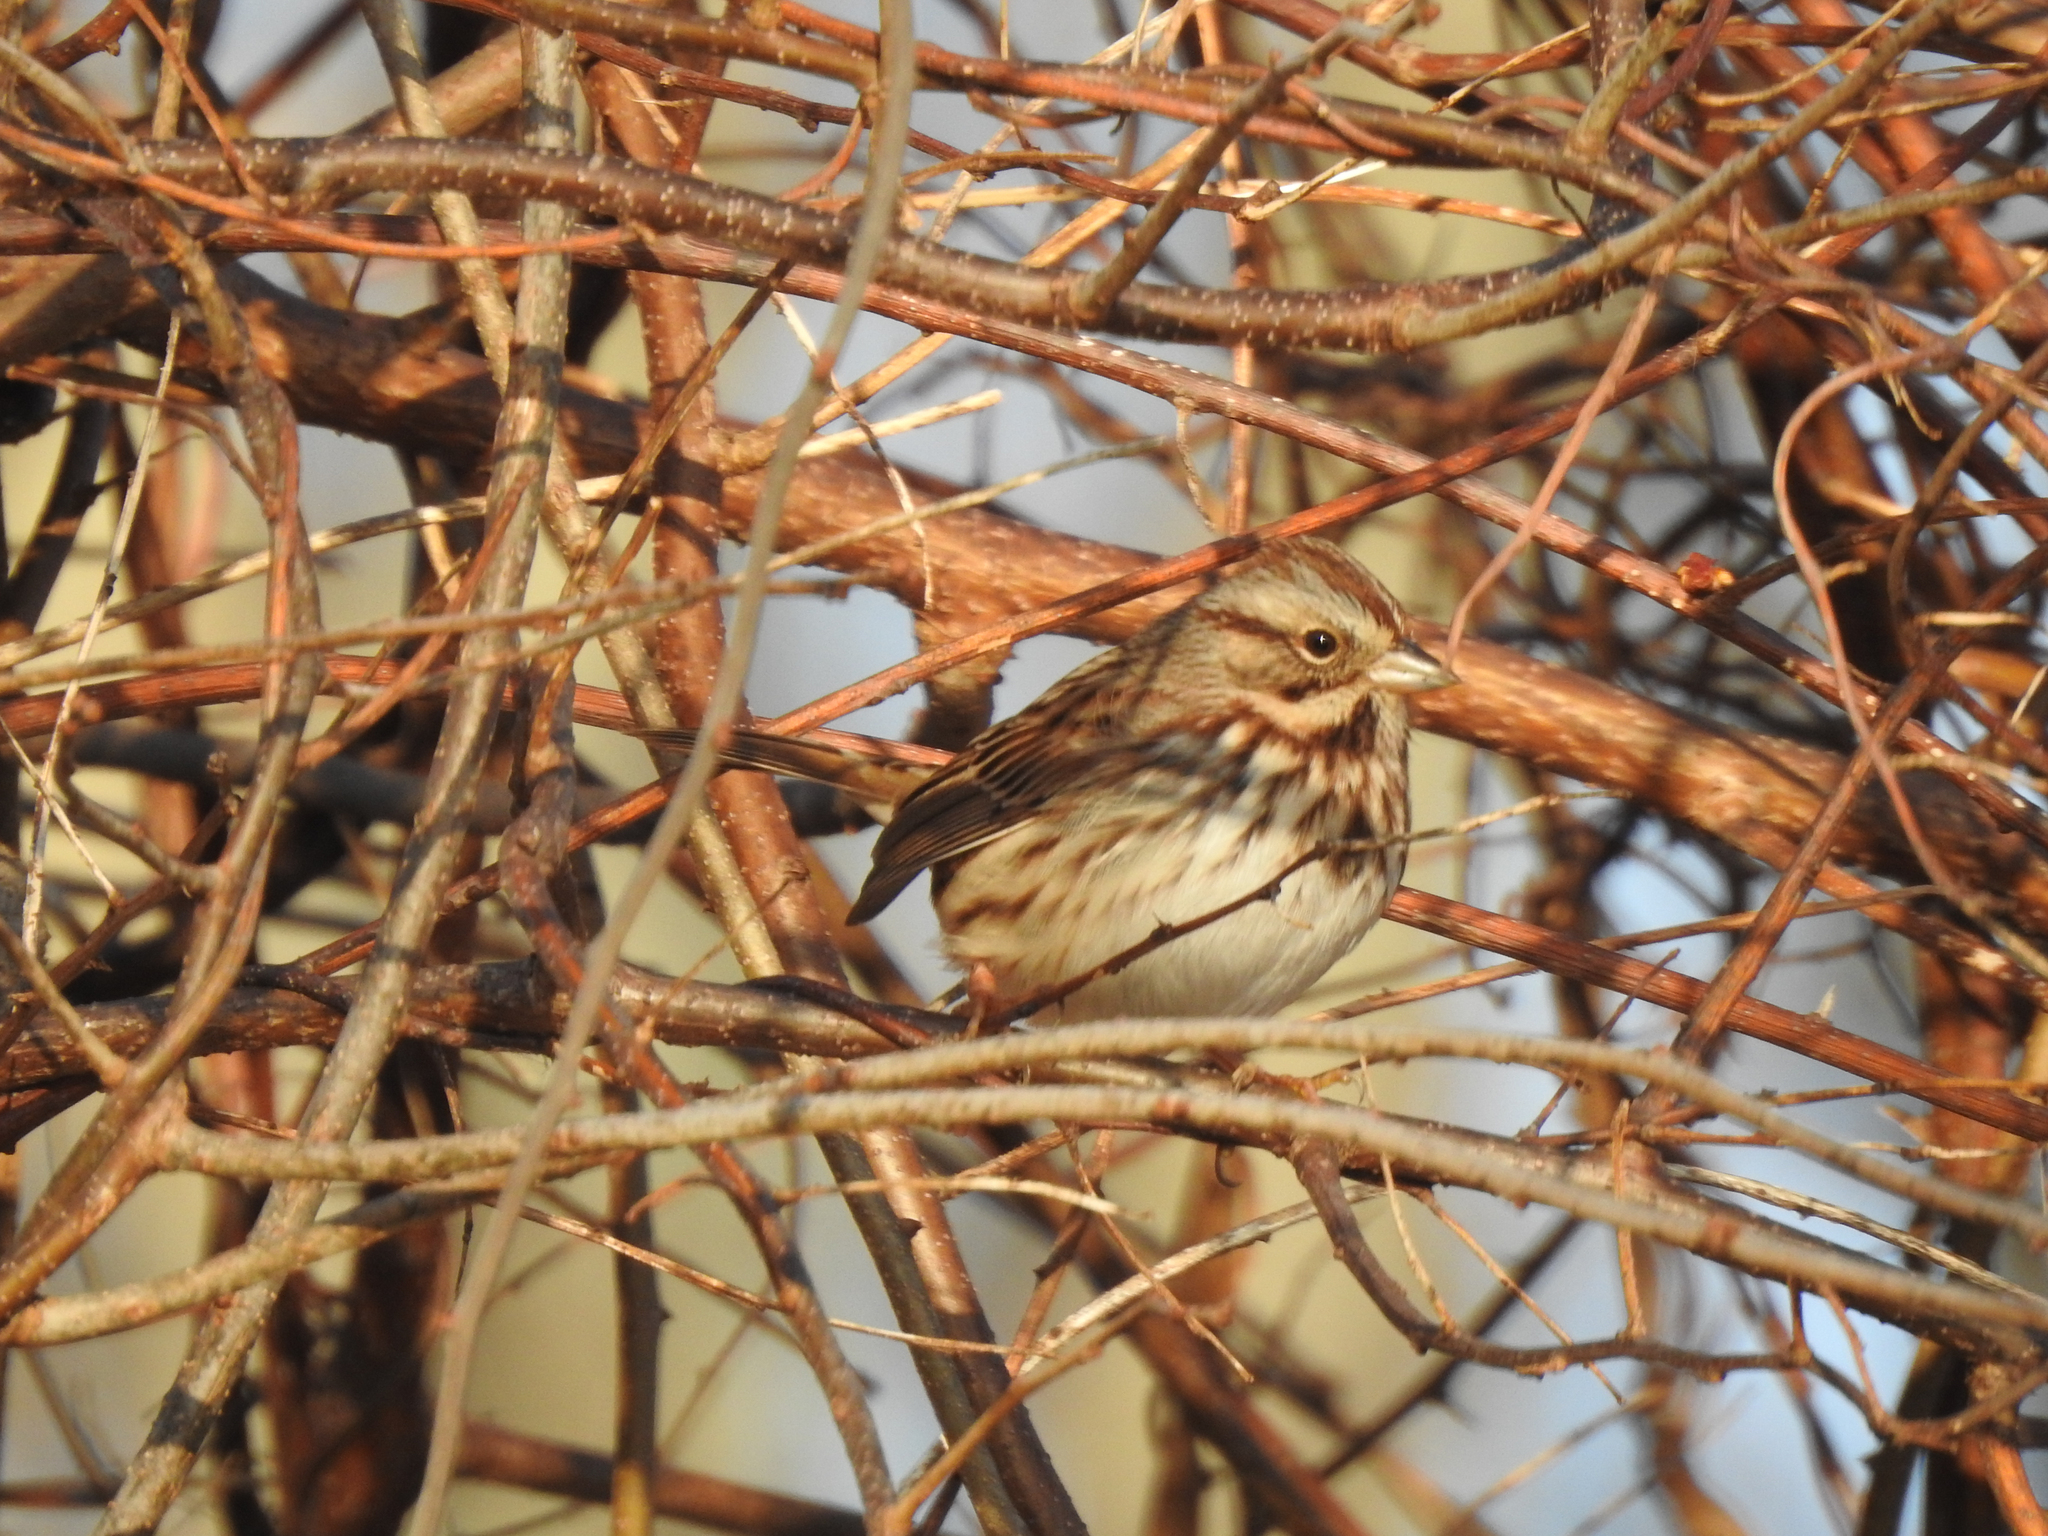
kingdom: Animalia
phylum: Chordata
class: Aves
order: Passeriformes
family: Passerellidae
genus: Melospiza
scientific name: Melospiza melodia
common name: Song sparrow
